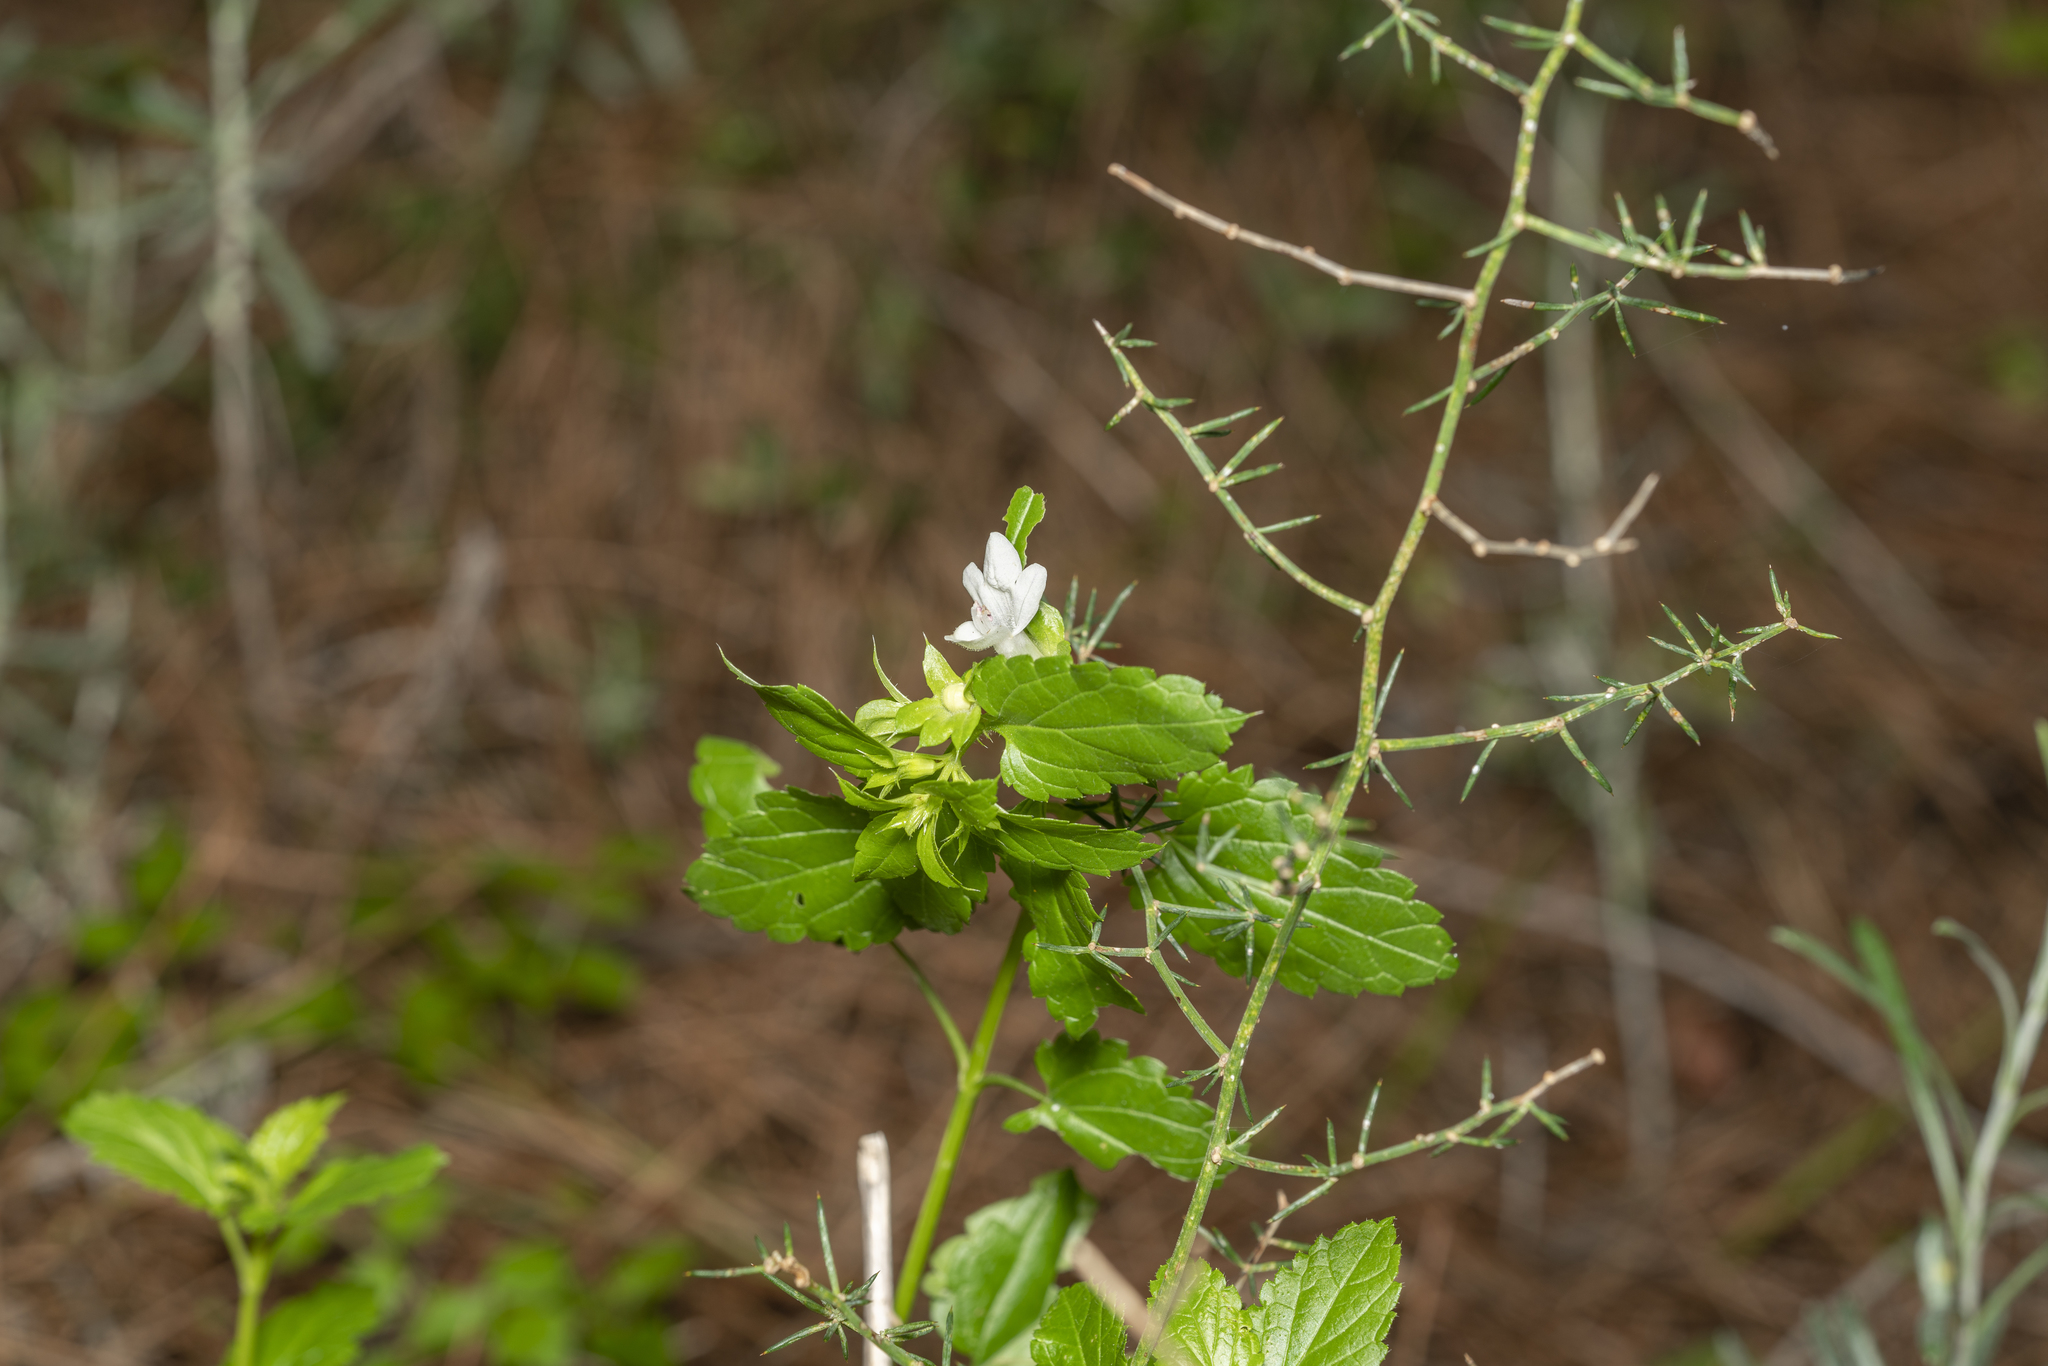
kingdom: Plantae
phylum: Tracheophyta
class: Magnoliopsida
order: Lamiales
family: Lamiaceae
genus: Prasium
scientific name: Prasium majus
